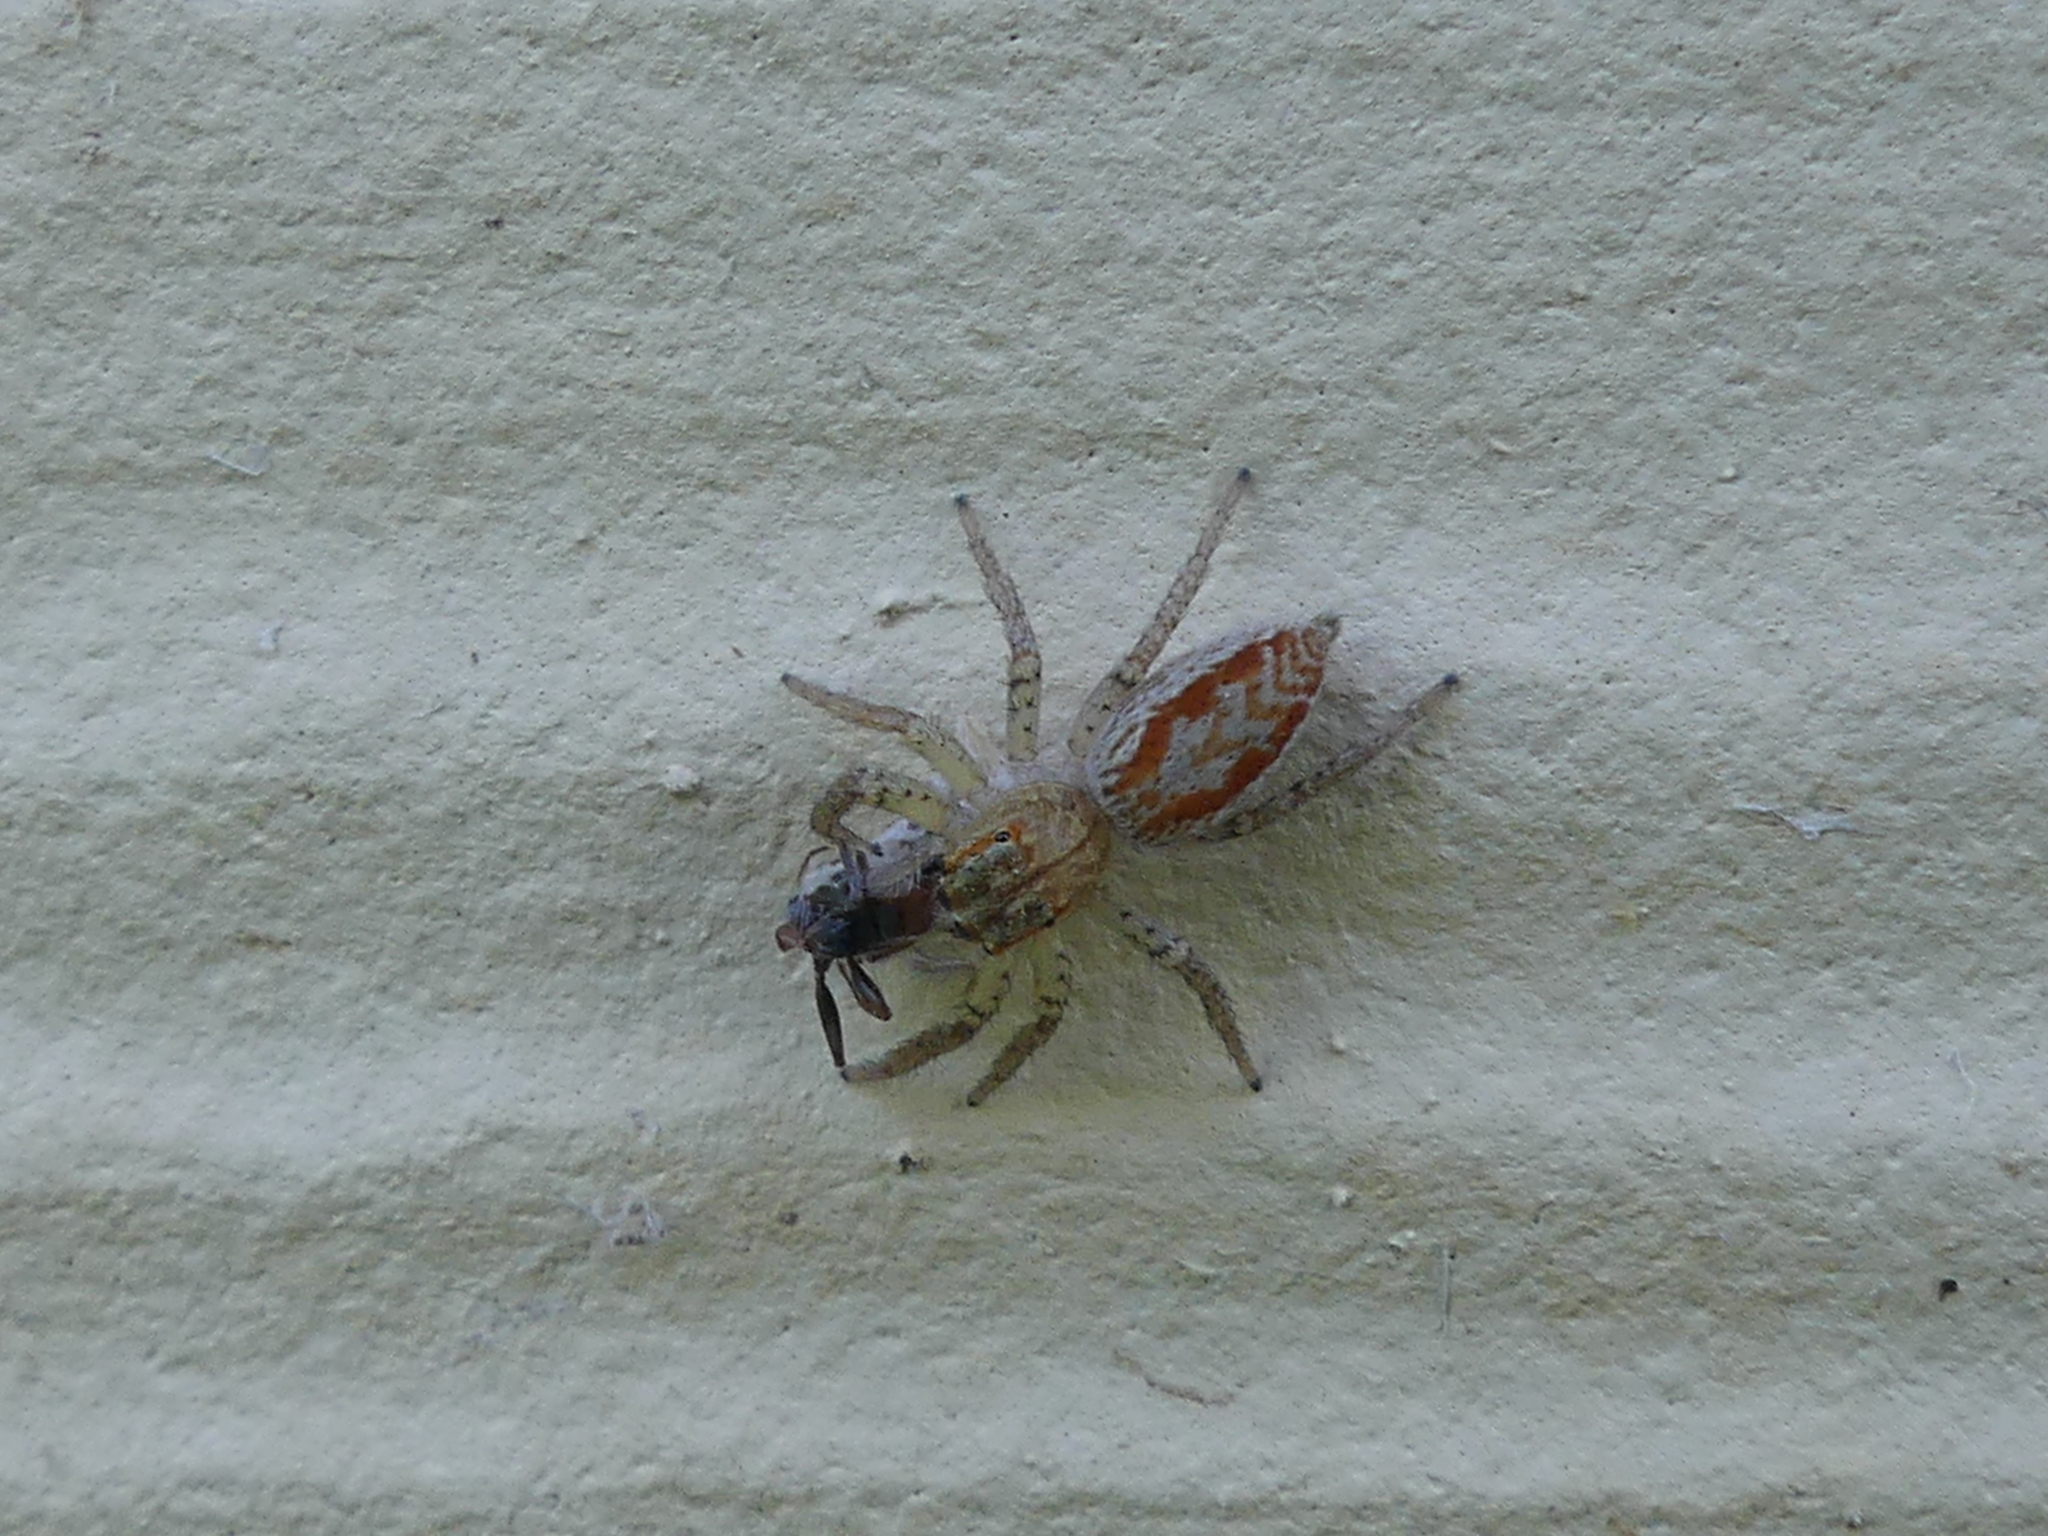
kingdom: Animalia
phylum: Arthropoda
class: Arachnida
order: Araneae
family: Salticidae
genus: Maevia
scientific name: Maevia inclemens
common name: Dimorphic jumper
